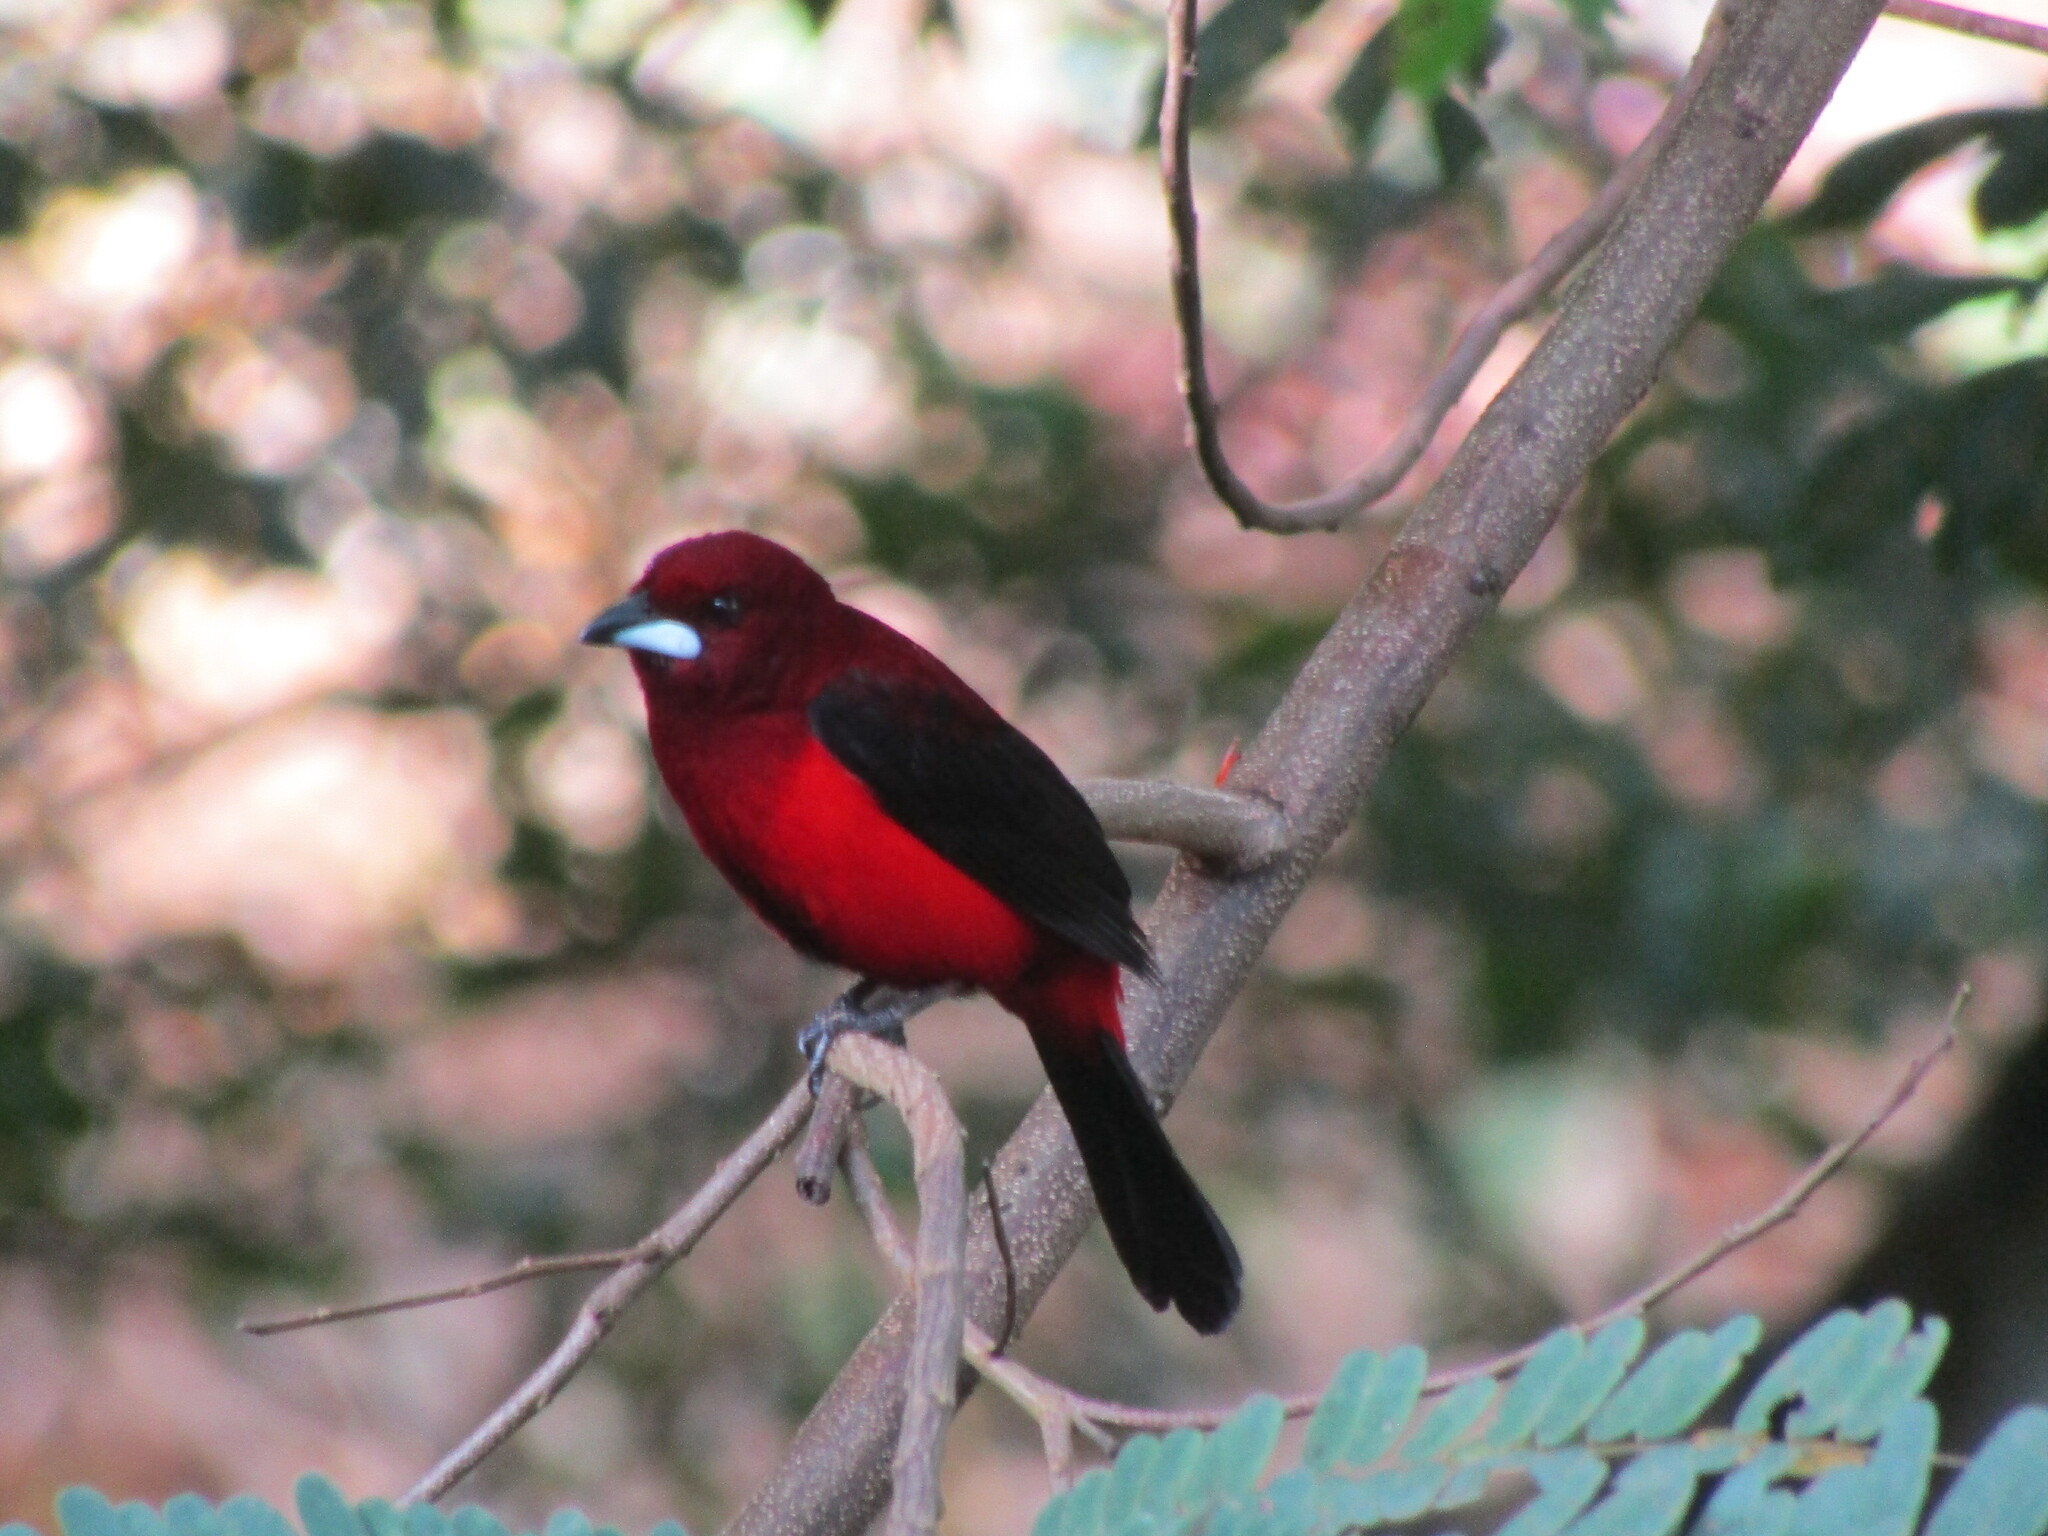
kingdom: Animalia
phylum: Chordata
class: Aves
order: Passeriformes
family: Thraupidae
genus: Ramphocelus
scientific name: Ramphocelus dimidiatus
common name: Crimson-backed tanager
